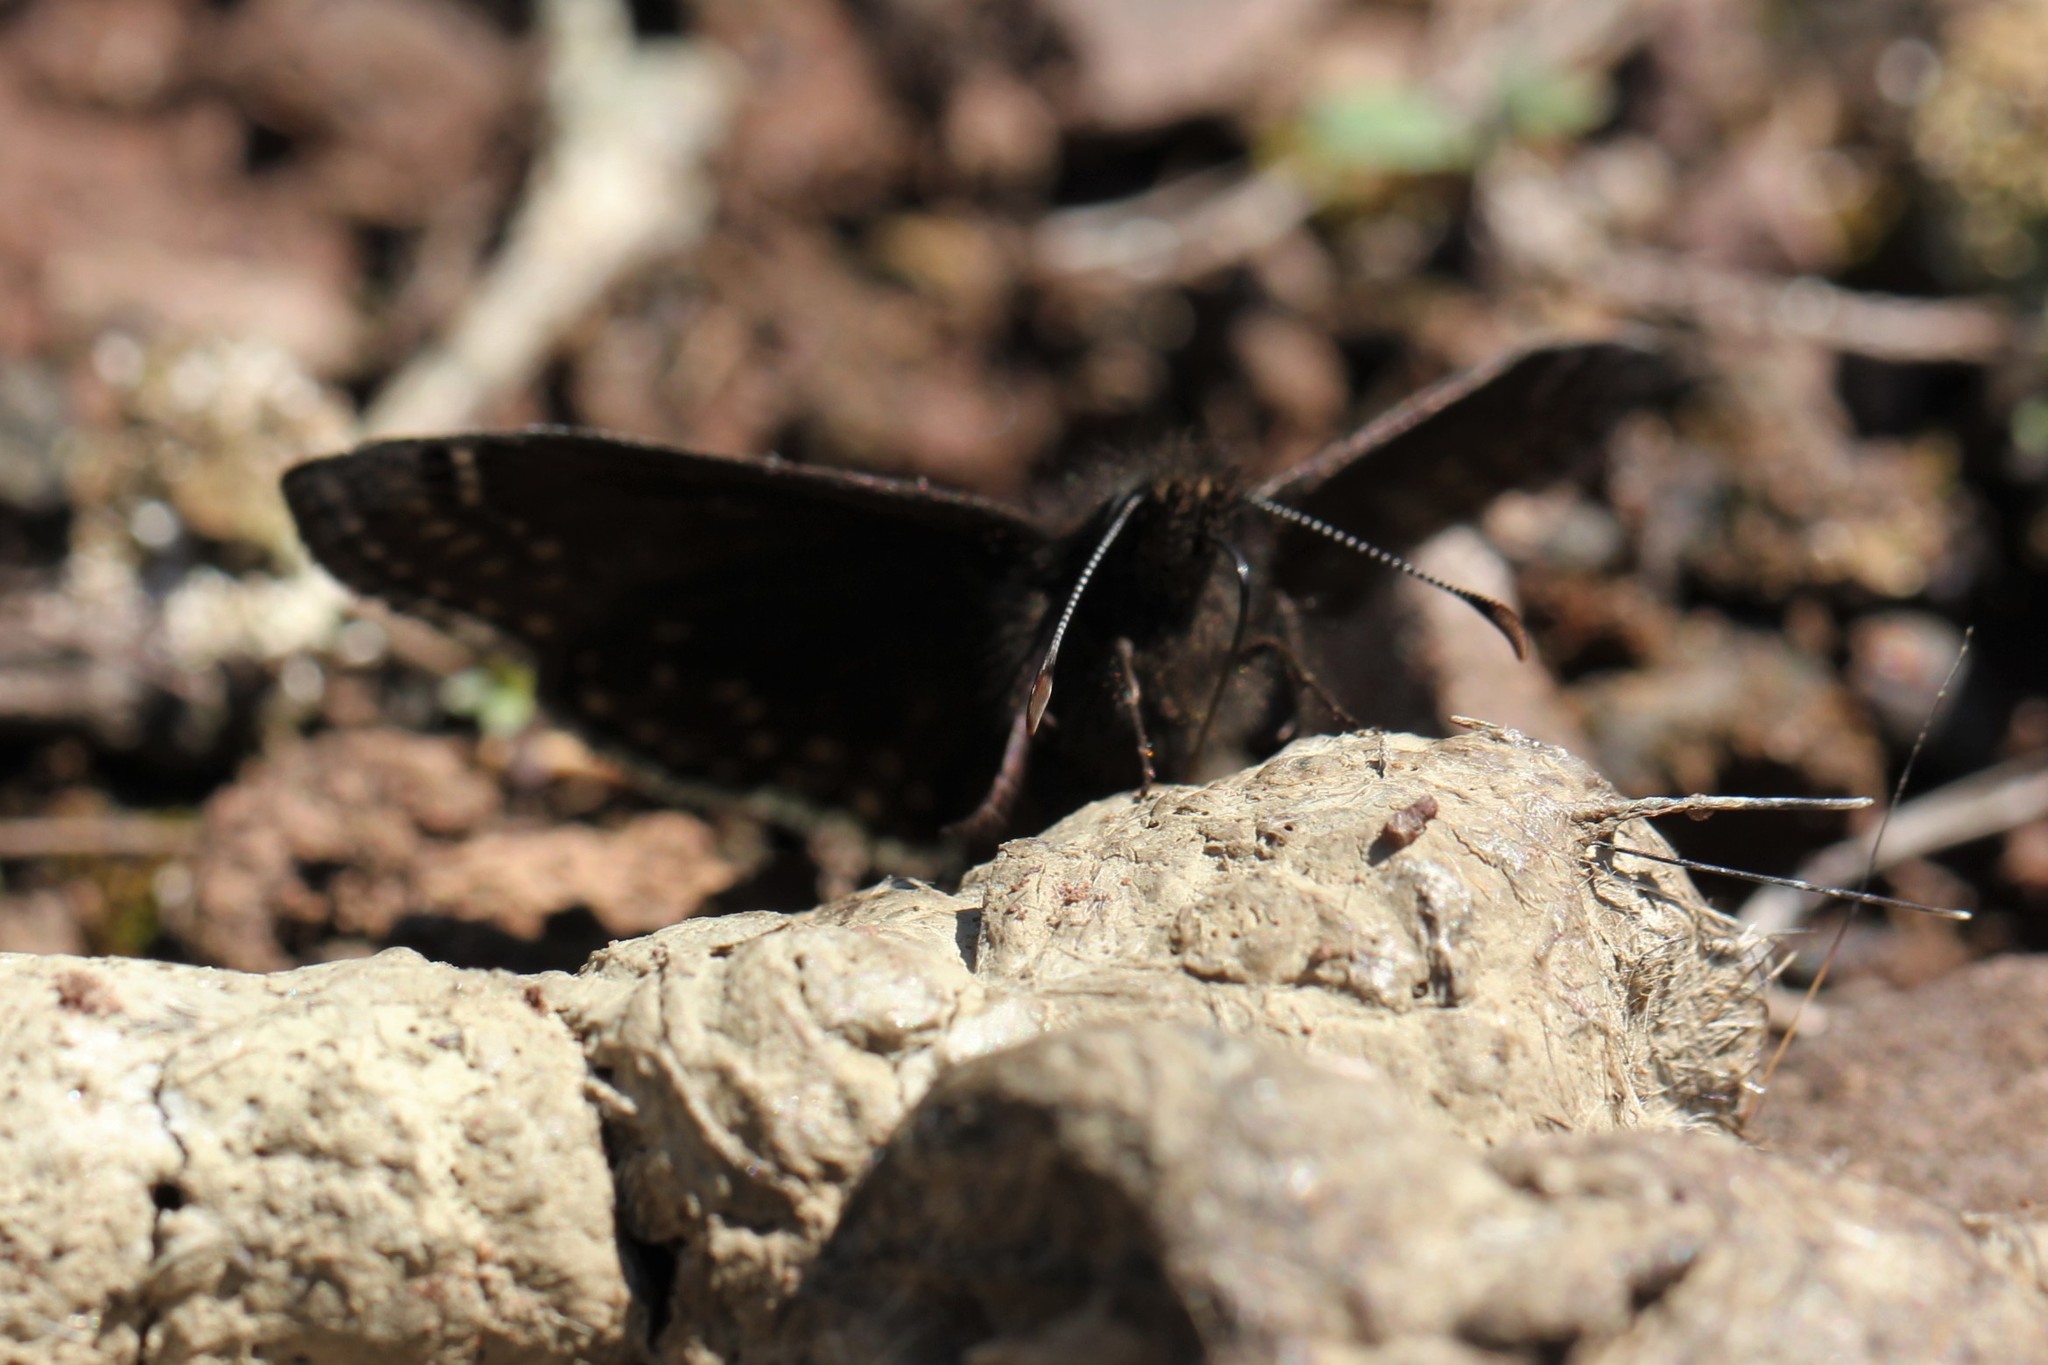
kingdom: Animalia
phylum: Arthropoda
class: Insecta
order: Lepidoptera
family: Hesperiidae
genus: Erynnis
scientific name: Erynnis brizo
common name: Sleepy duskywing
